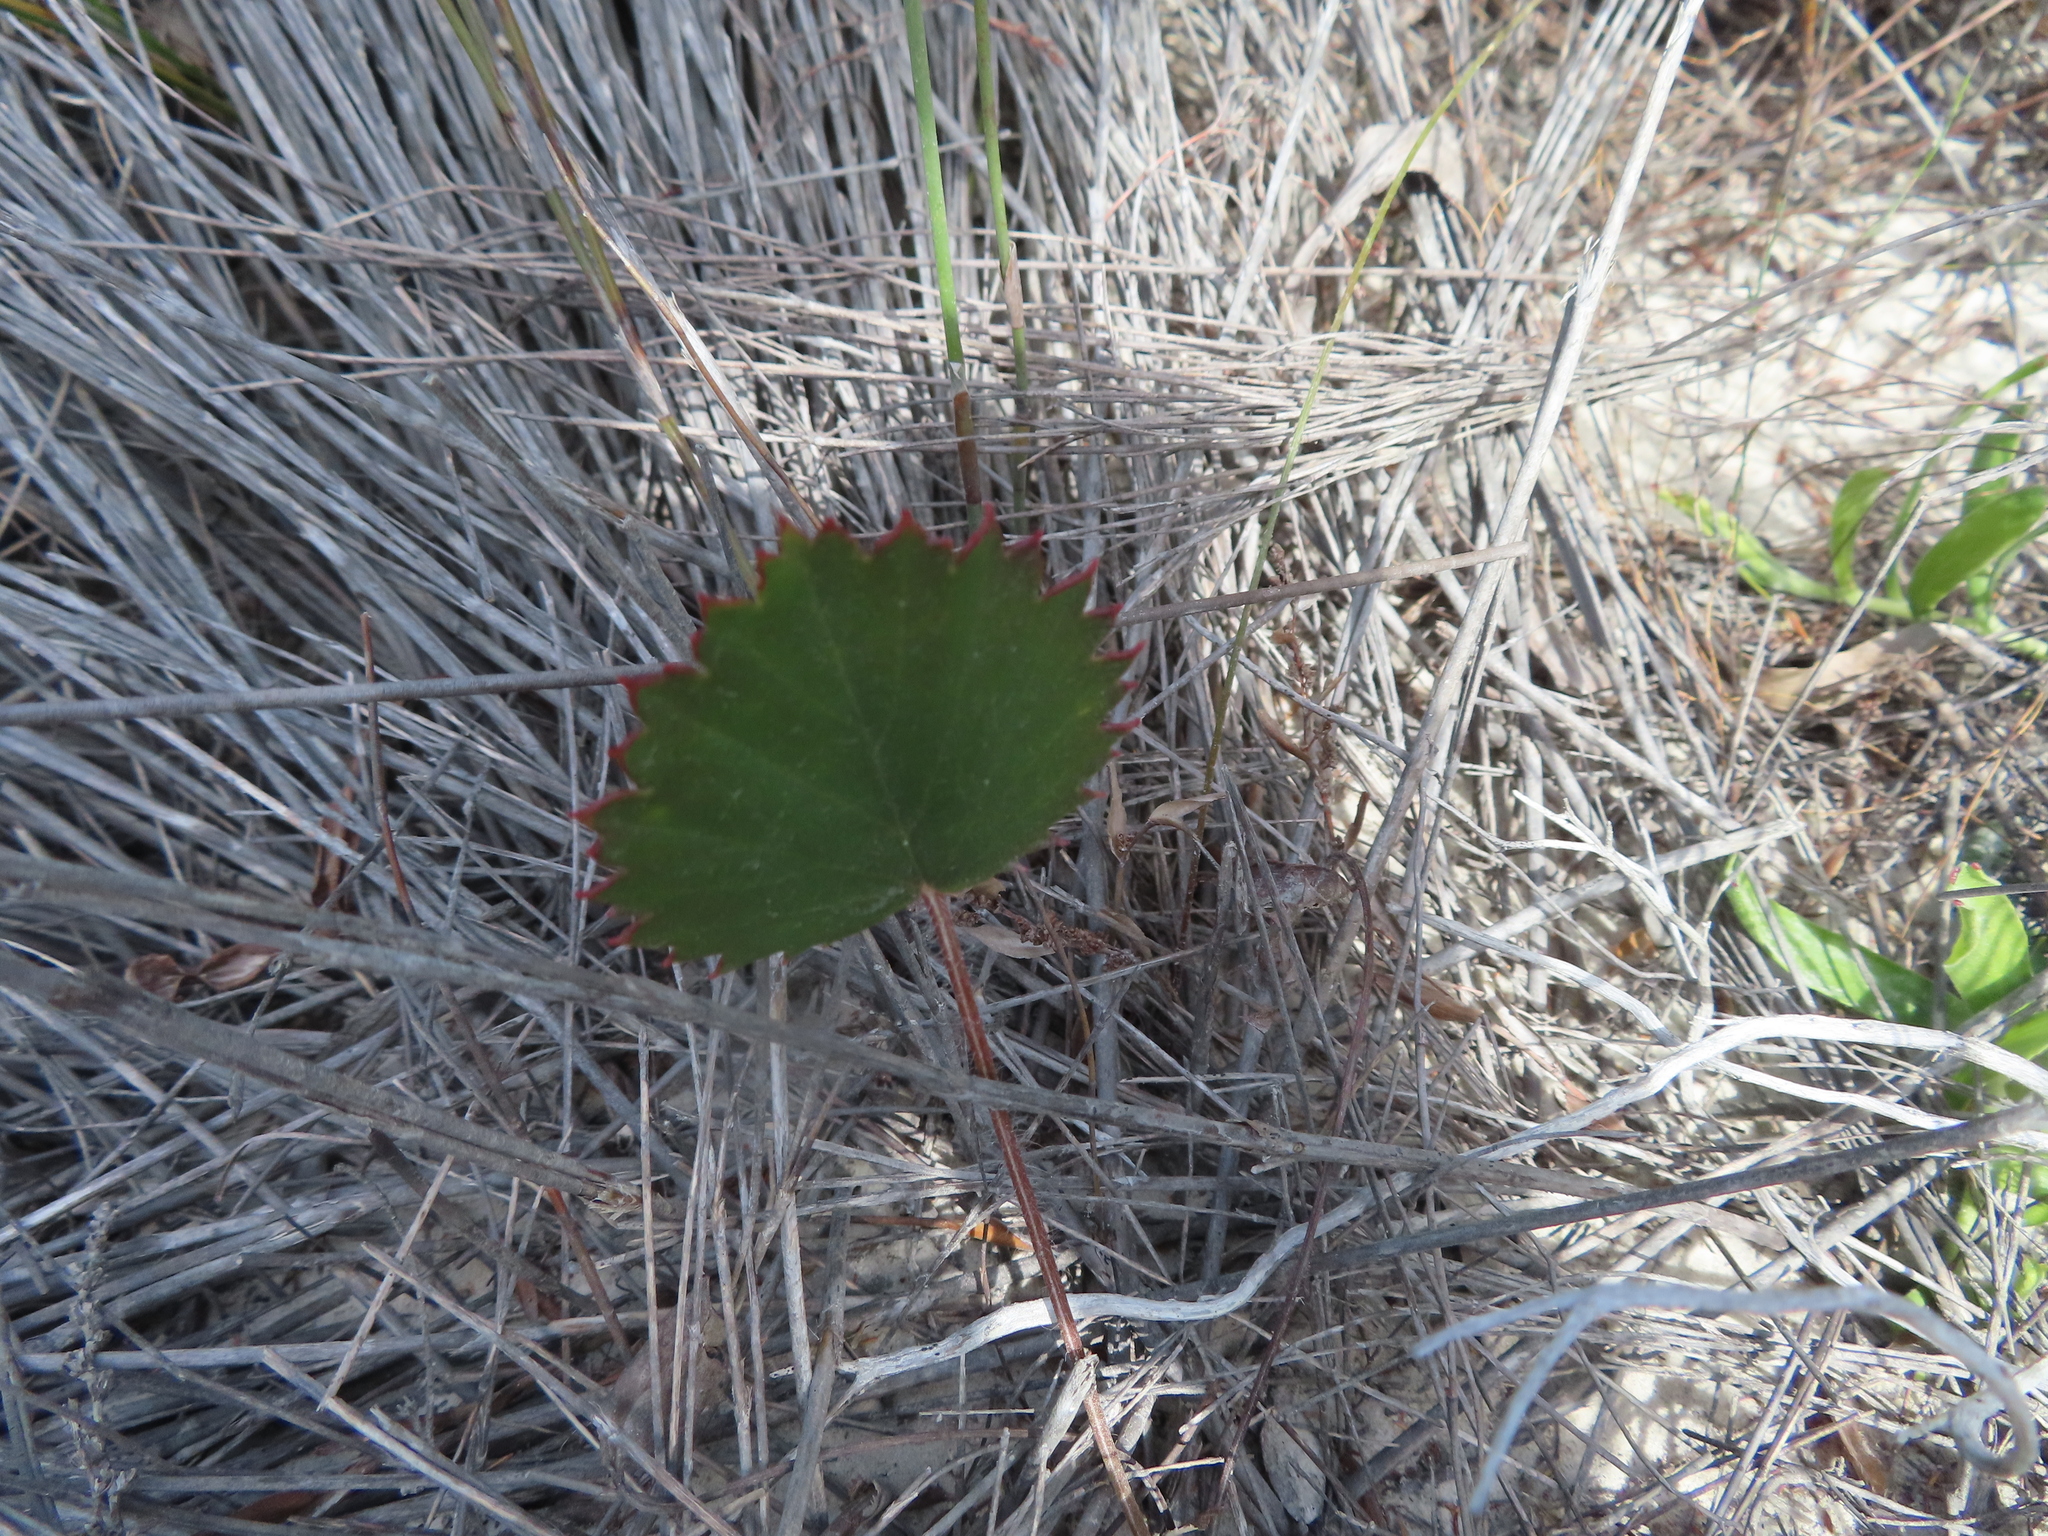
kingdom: Plantae
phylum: Tracheophyta
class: Magnoliopsida
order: Geraniales
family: Geraniaceae
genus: Pelargonium
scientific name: Pelargonium elegans
